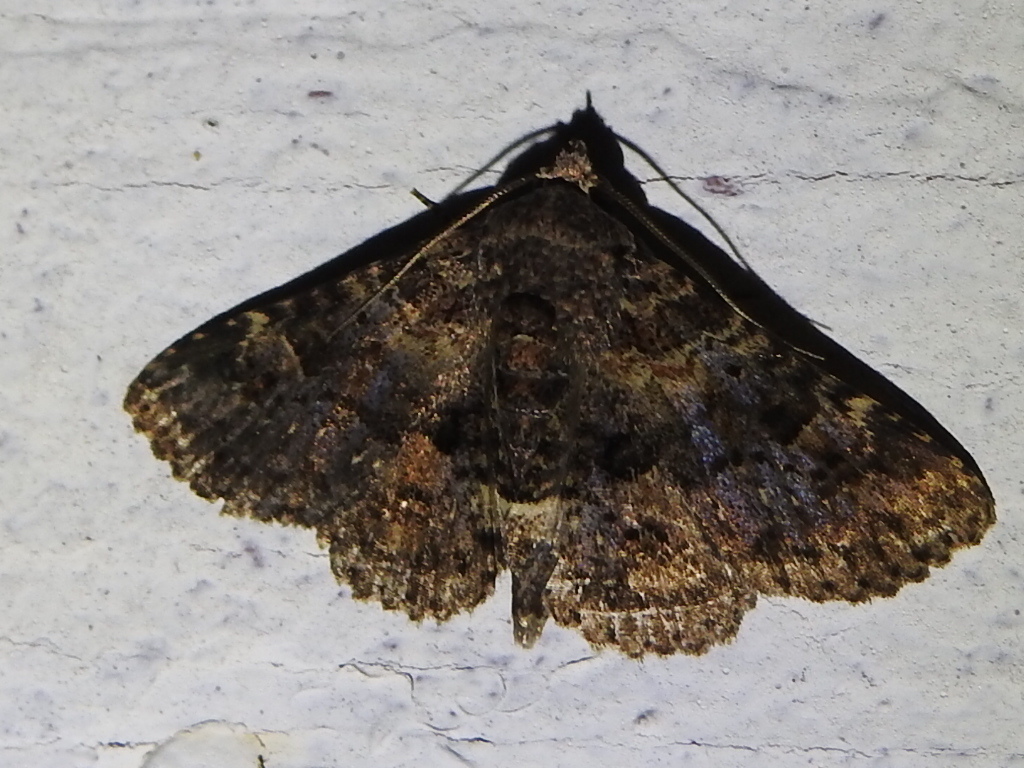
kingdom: Animalia
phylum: Arthropoda
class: Insecta
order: Lepidoptera
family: Erebidae
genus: Metalectra
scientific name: Metalectra discalis
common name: Common fungus moth
